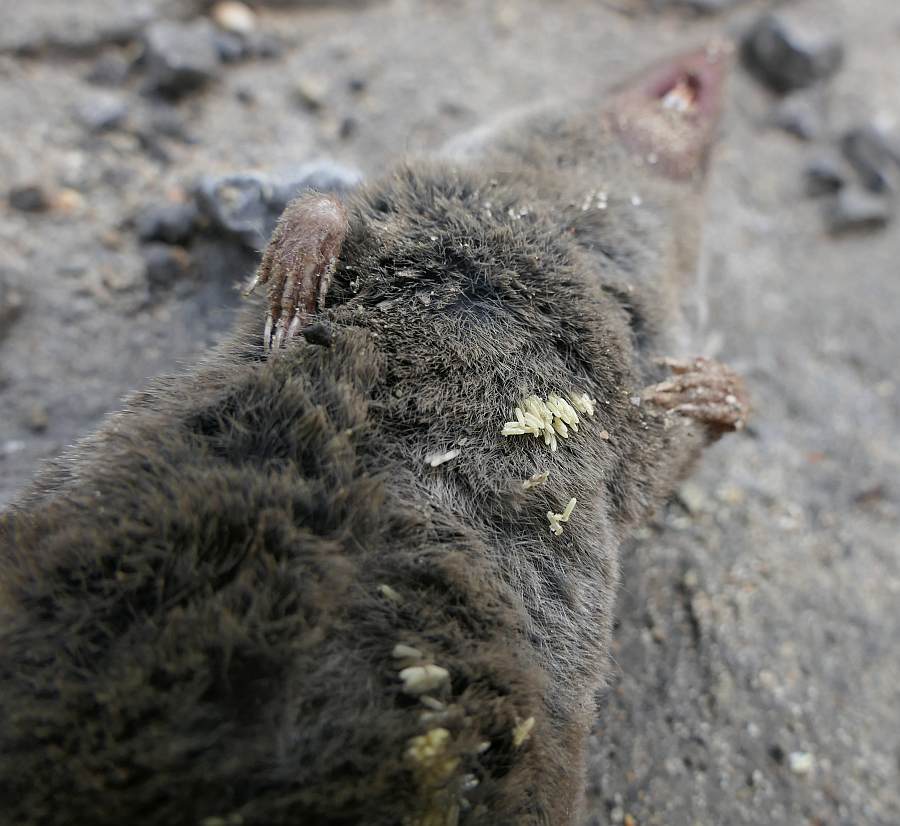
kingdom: Animalia
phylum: Chordata
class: Mammalia
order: Soricomorpha
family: Soricidae
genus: Blarina
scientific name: Blarina brevicauda
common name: Northern short-tailed shrew
